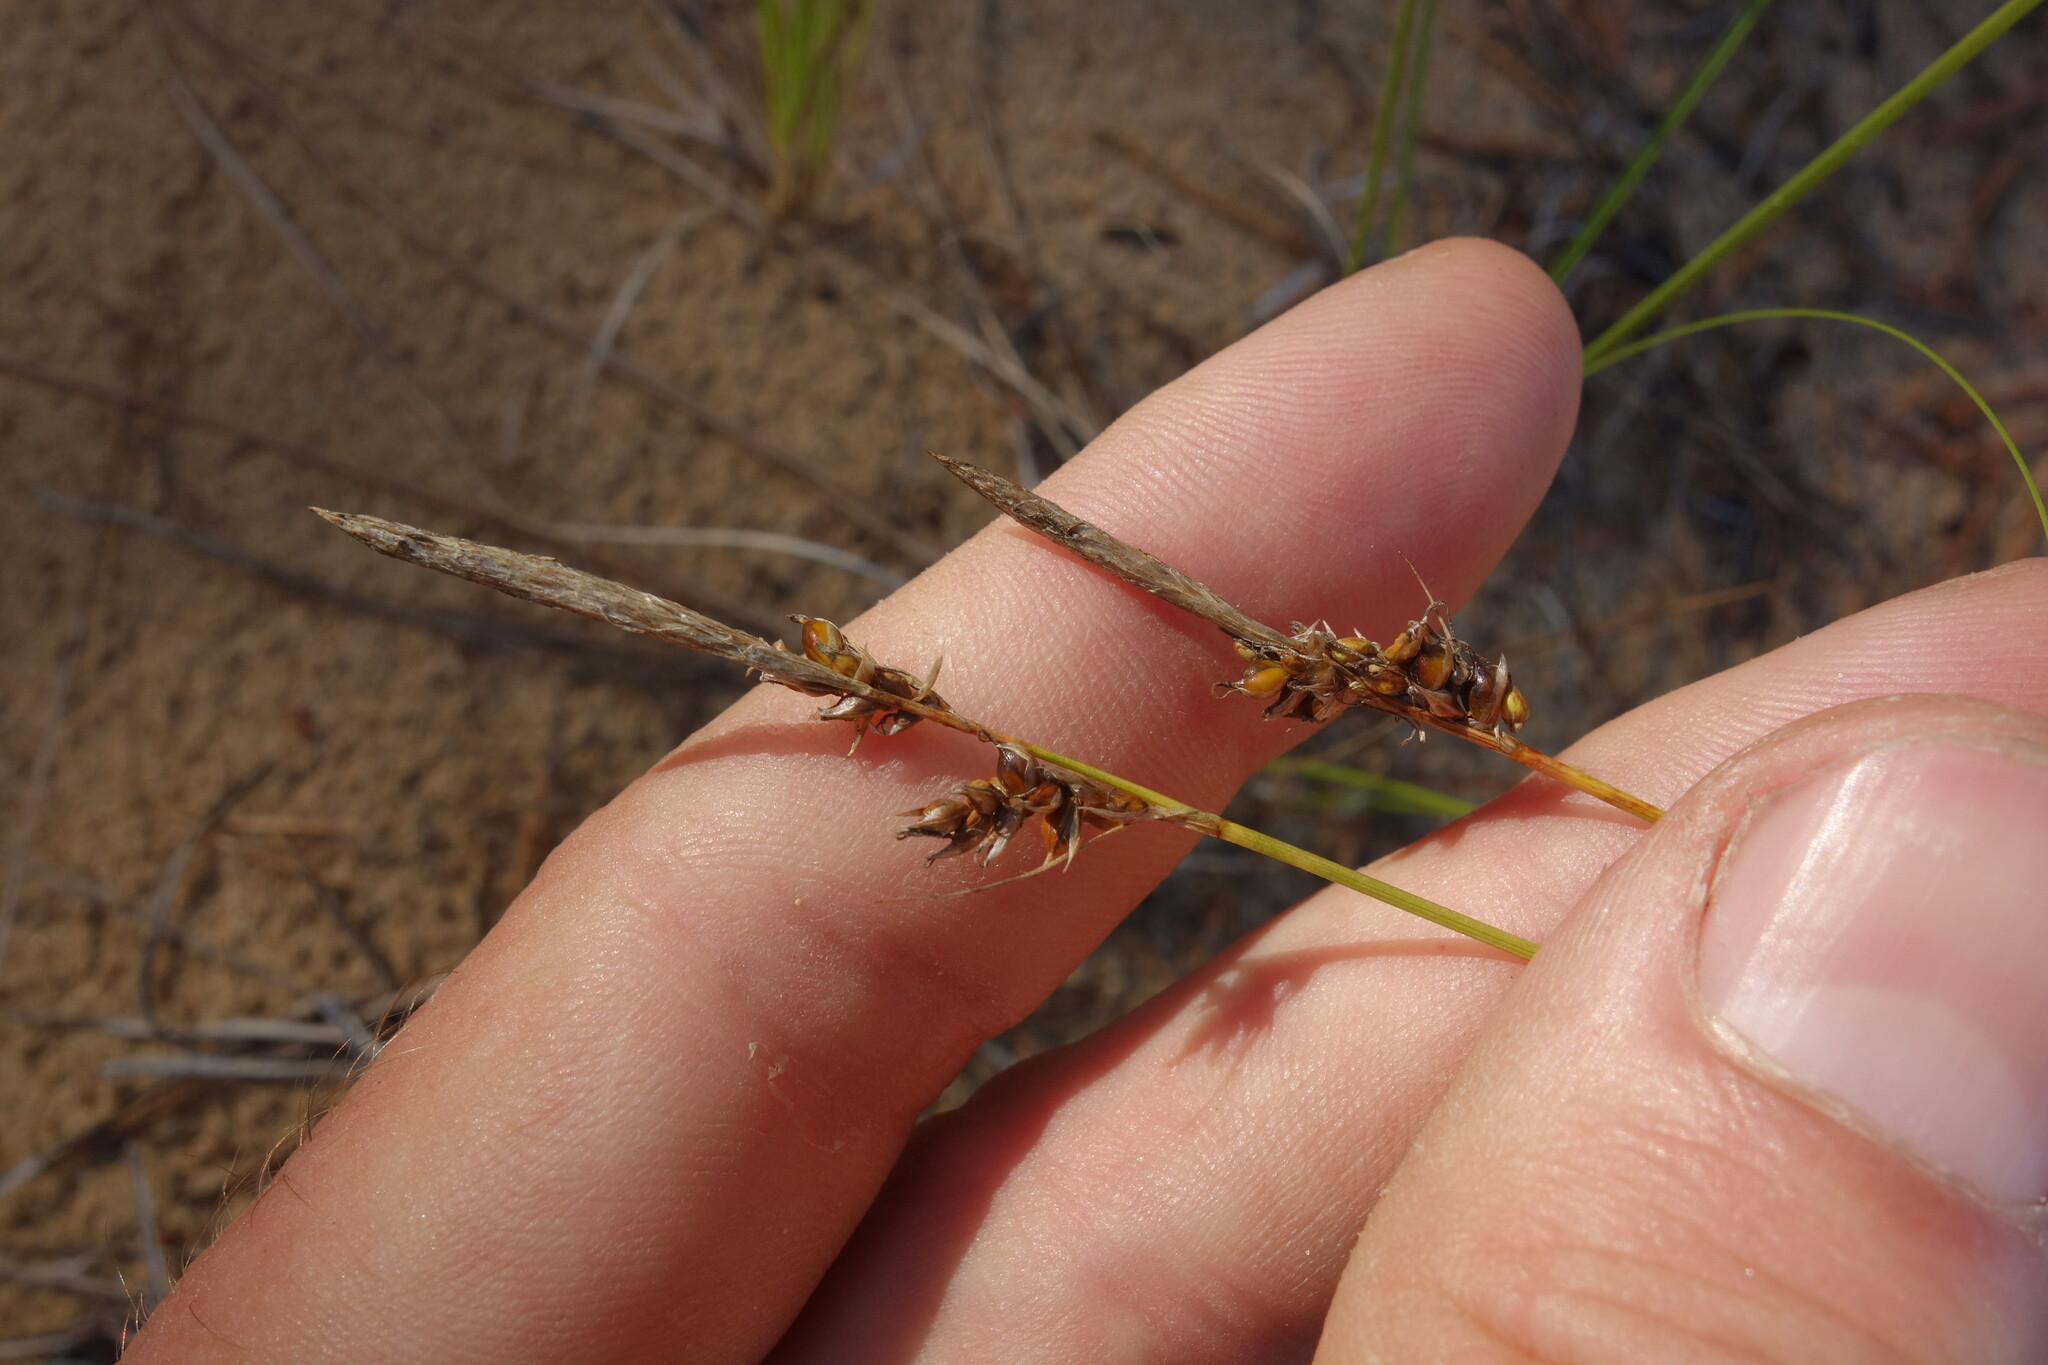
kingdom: Plantae
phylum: Tracheophyta
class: Liliopsida
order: Poales
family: Cyperaceae
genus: Carex
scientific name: Carex korshinskyi
